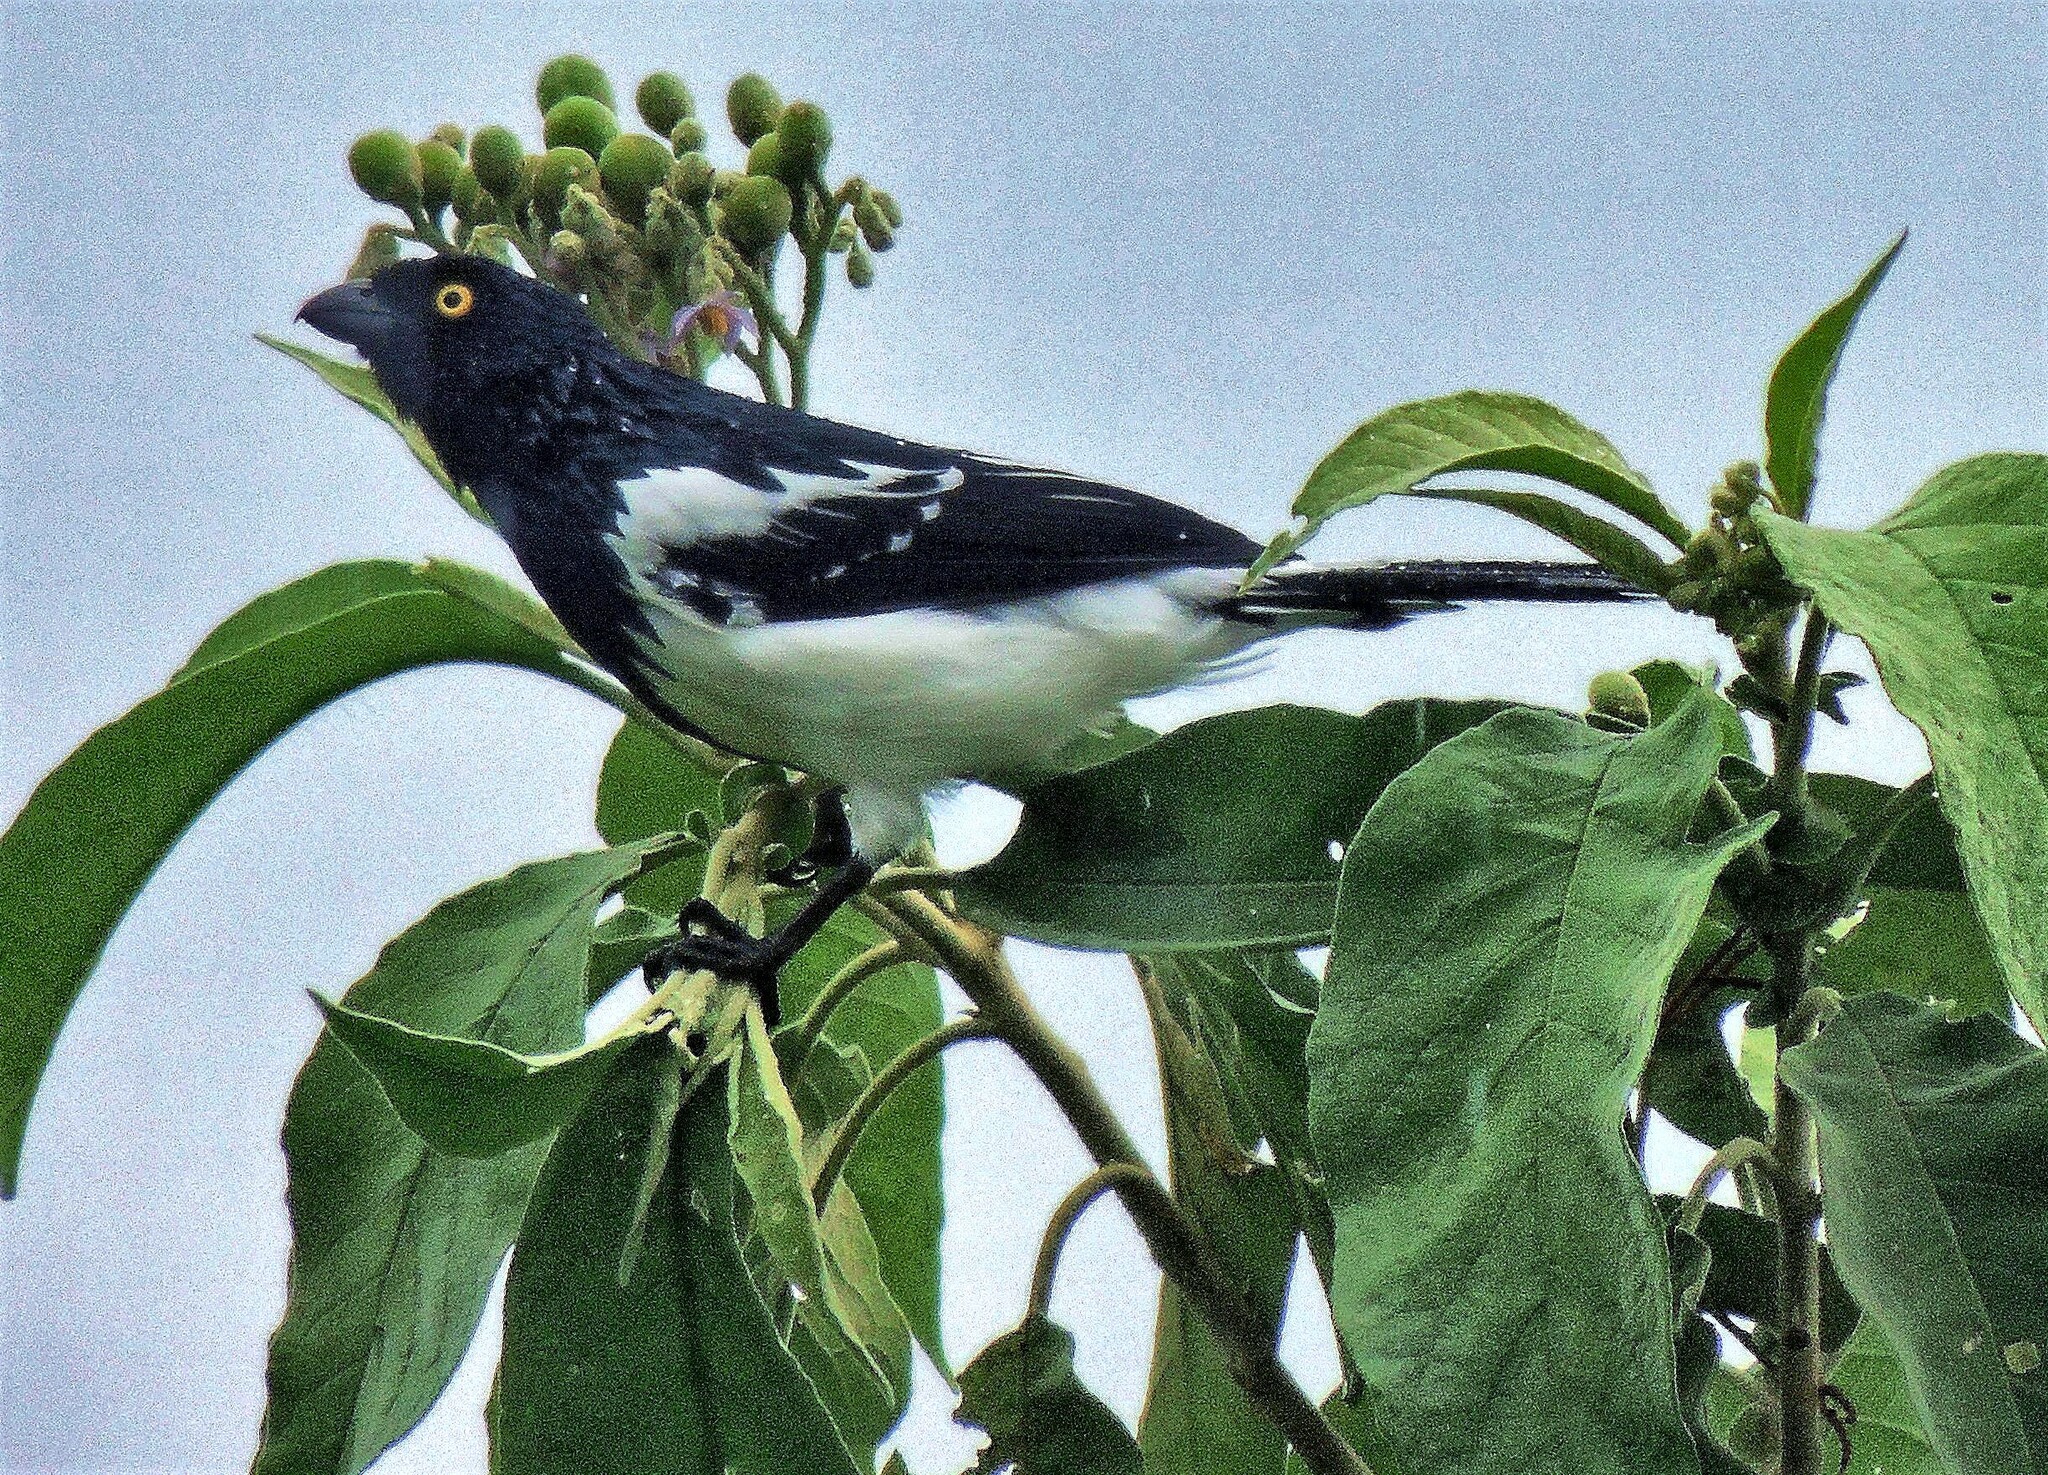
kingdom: Animalia
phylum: Chordata
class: Aves
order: Passeriformes
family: Thraupidae
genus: Cissopis
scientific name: Cissopis leverianus
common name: Magpie tanager
